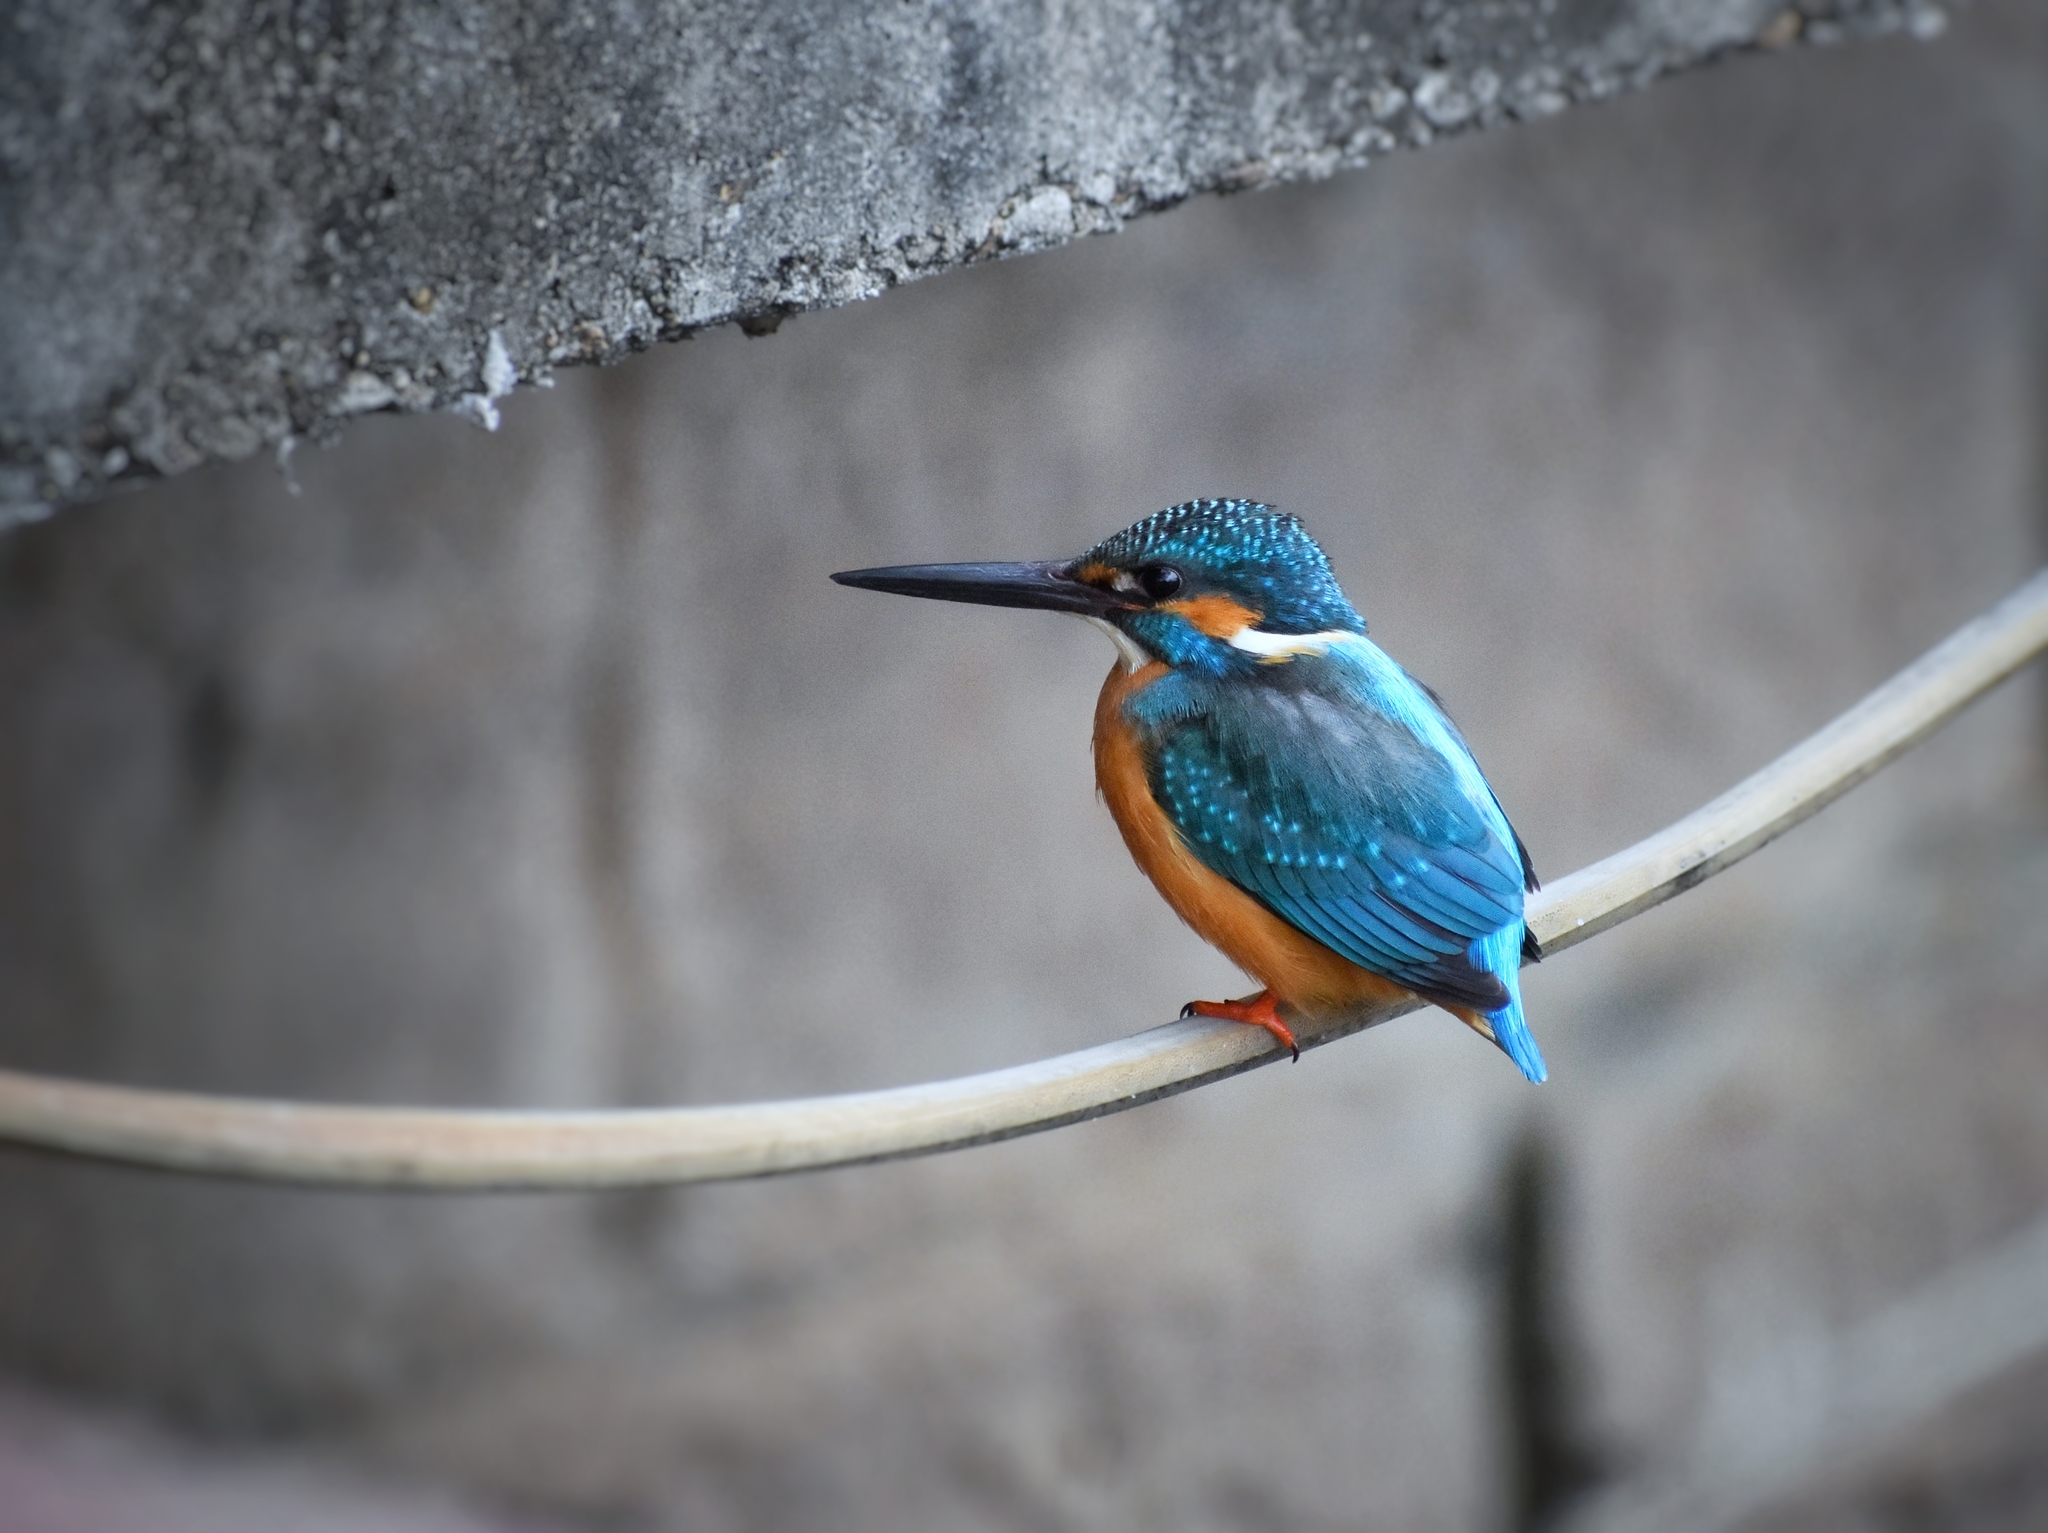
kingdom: Animalia
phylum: Chordata
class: Aves
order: Coraciiformes
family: Alcedinidae
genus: Alcedo
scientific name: Alcedo atthis
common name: Common kingfisher
